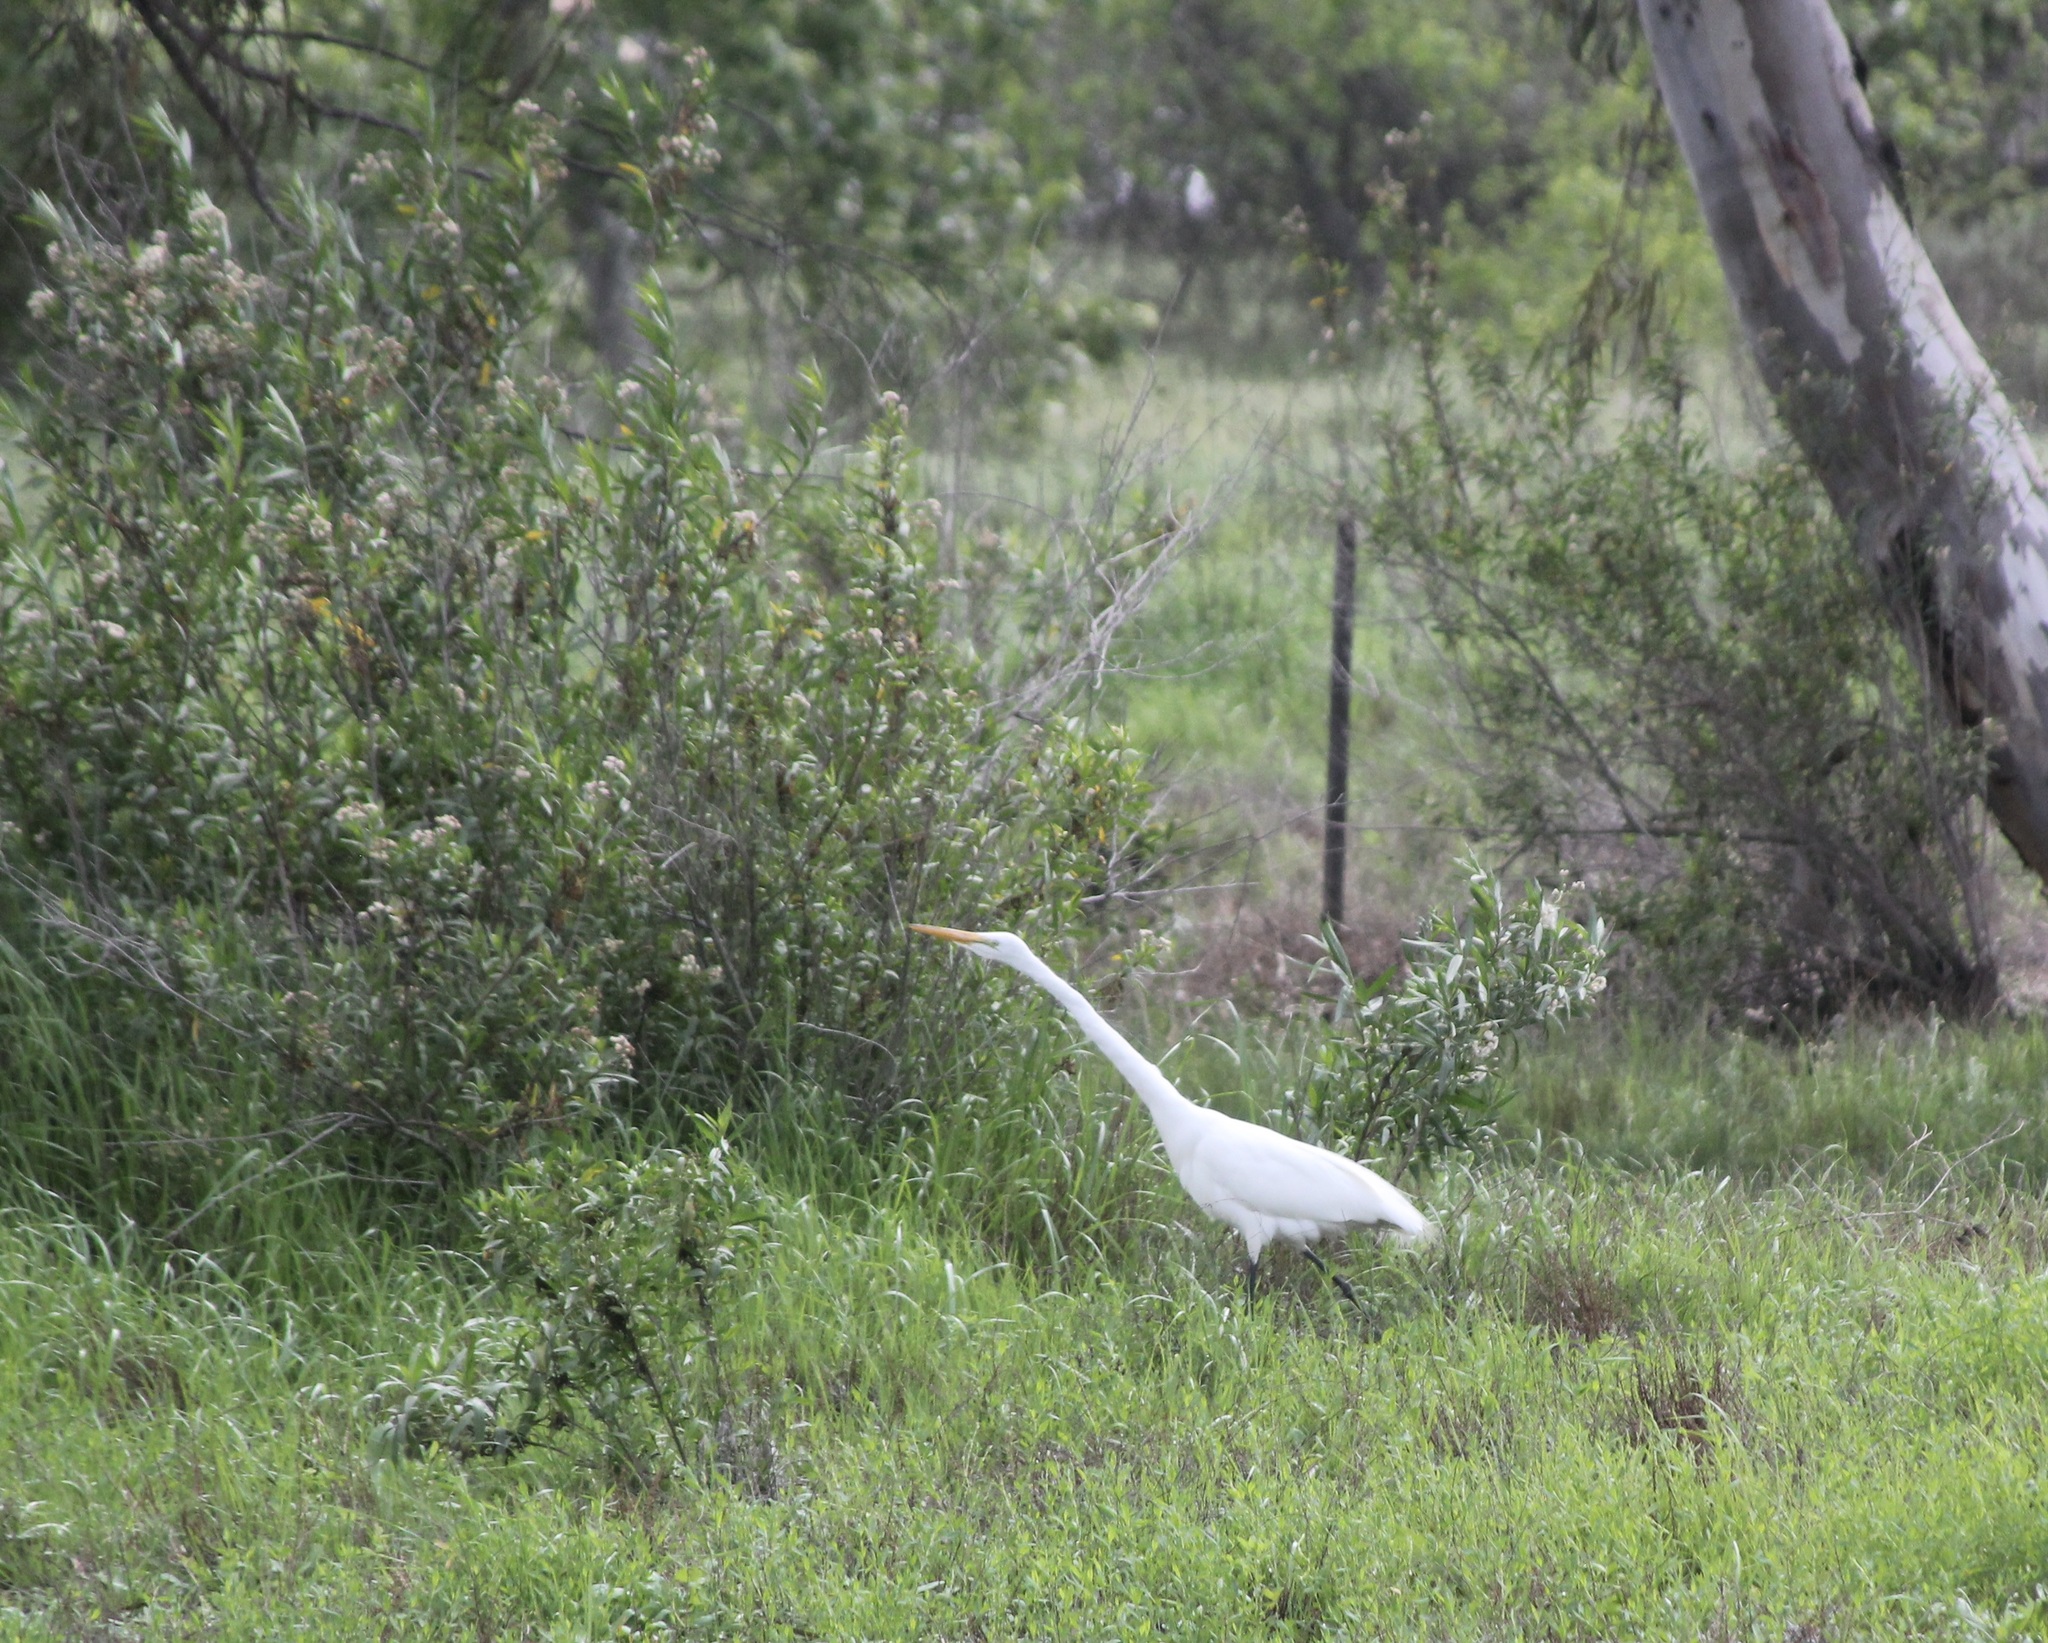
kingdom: Animalia
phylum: Chordata
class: Aves
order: Pelecaniformes
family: Ardeidae
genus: Ardea
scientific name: Ardea alba
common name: Great egret
